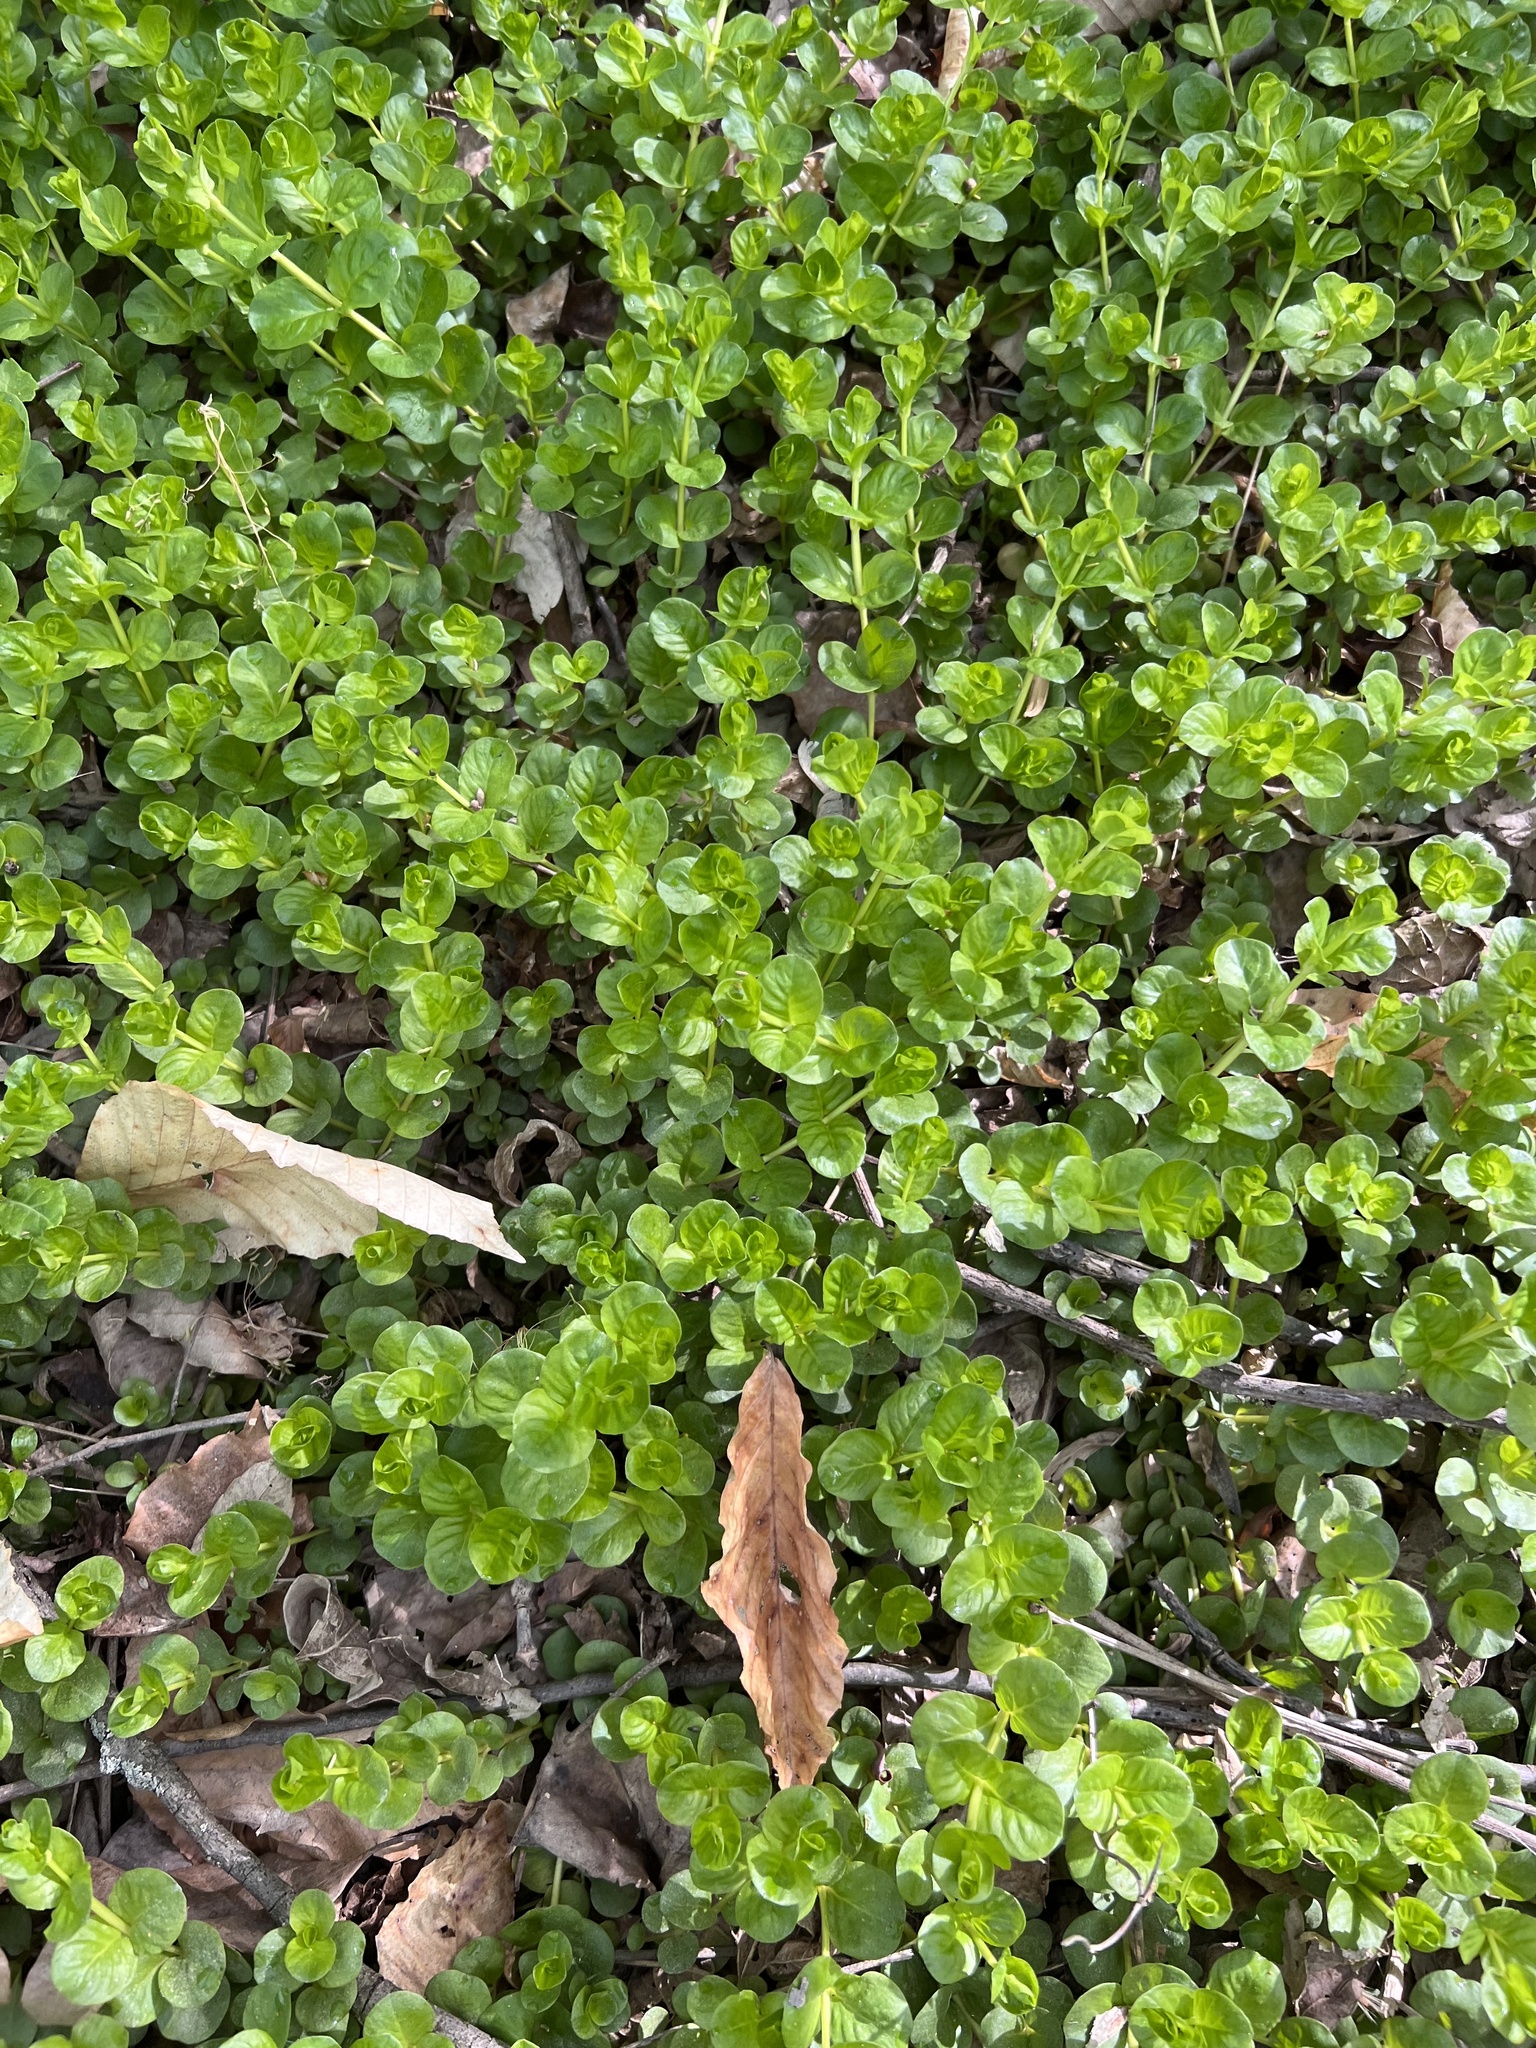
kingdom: Plantae
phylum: Tracheophyta
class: Magnoliopsida
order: Ericales
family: Primulaceae
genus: Lysimachia
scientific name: Lysimachia nummularia
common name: Moneywort
